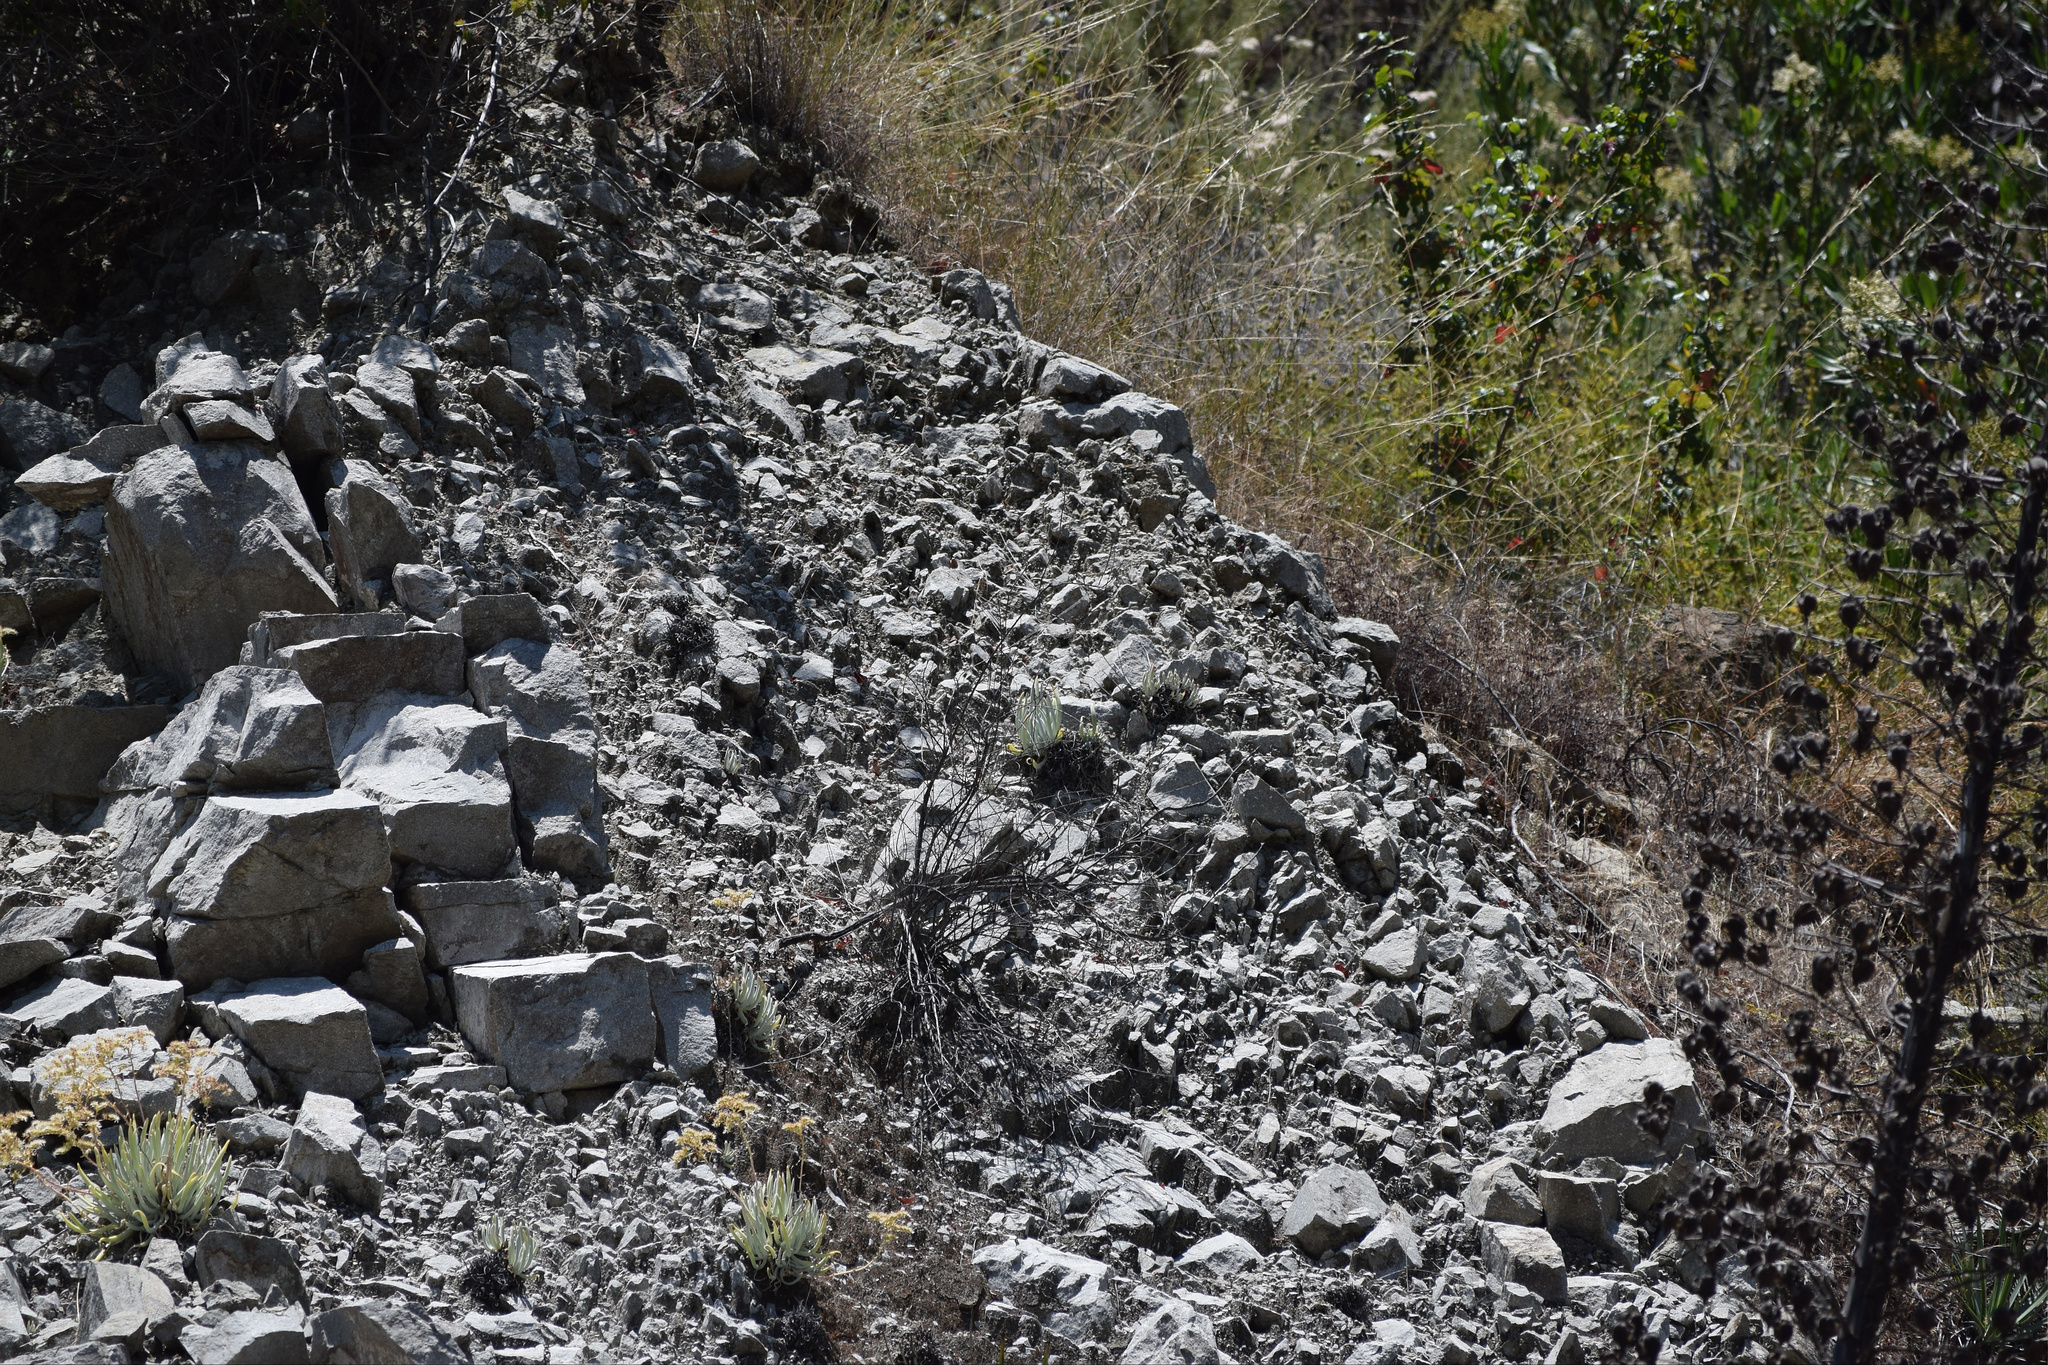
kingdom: Plantae
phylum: Tracheophyta
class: Magnoliopsida
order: Saxifragales
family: Crassulaceae
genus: Dudleya
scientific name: Dudleya densiflora
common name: San gabriel mountains dudleya
